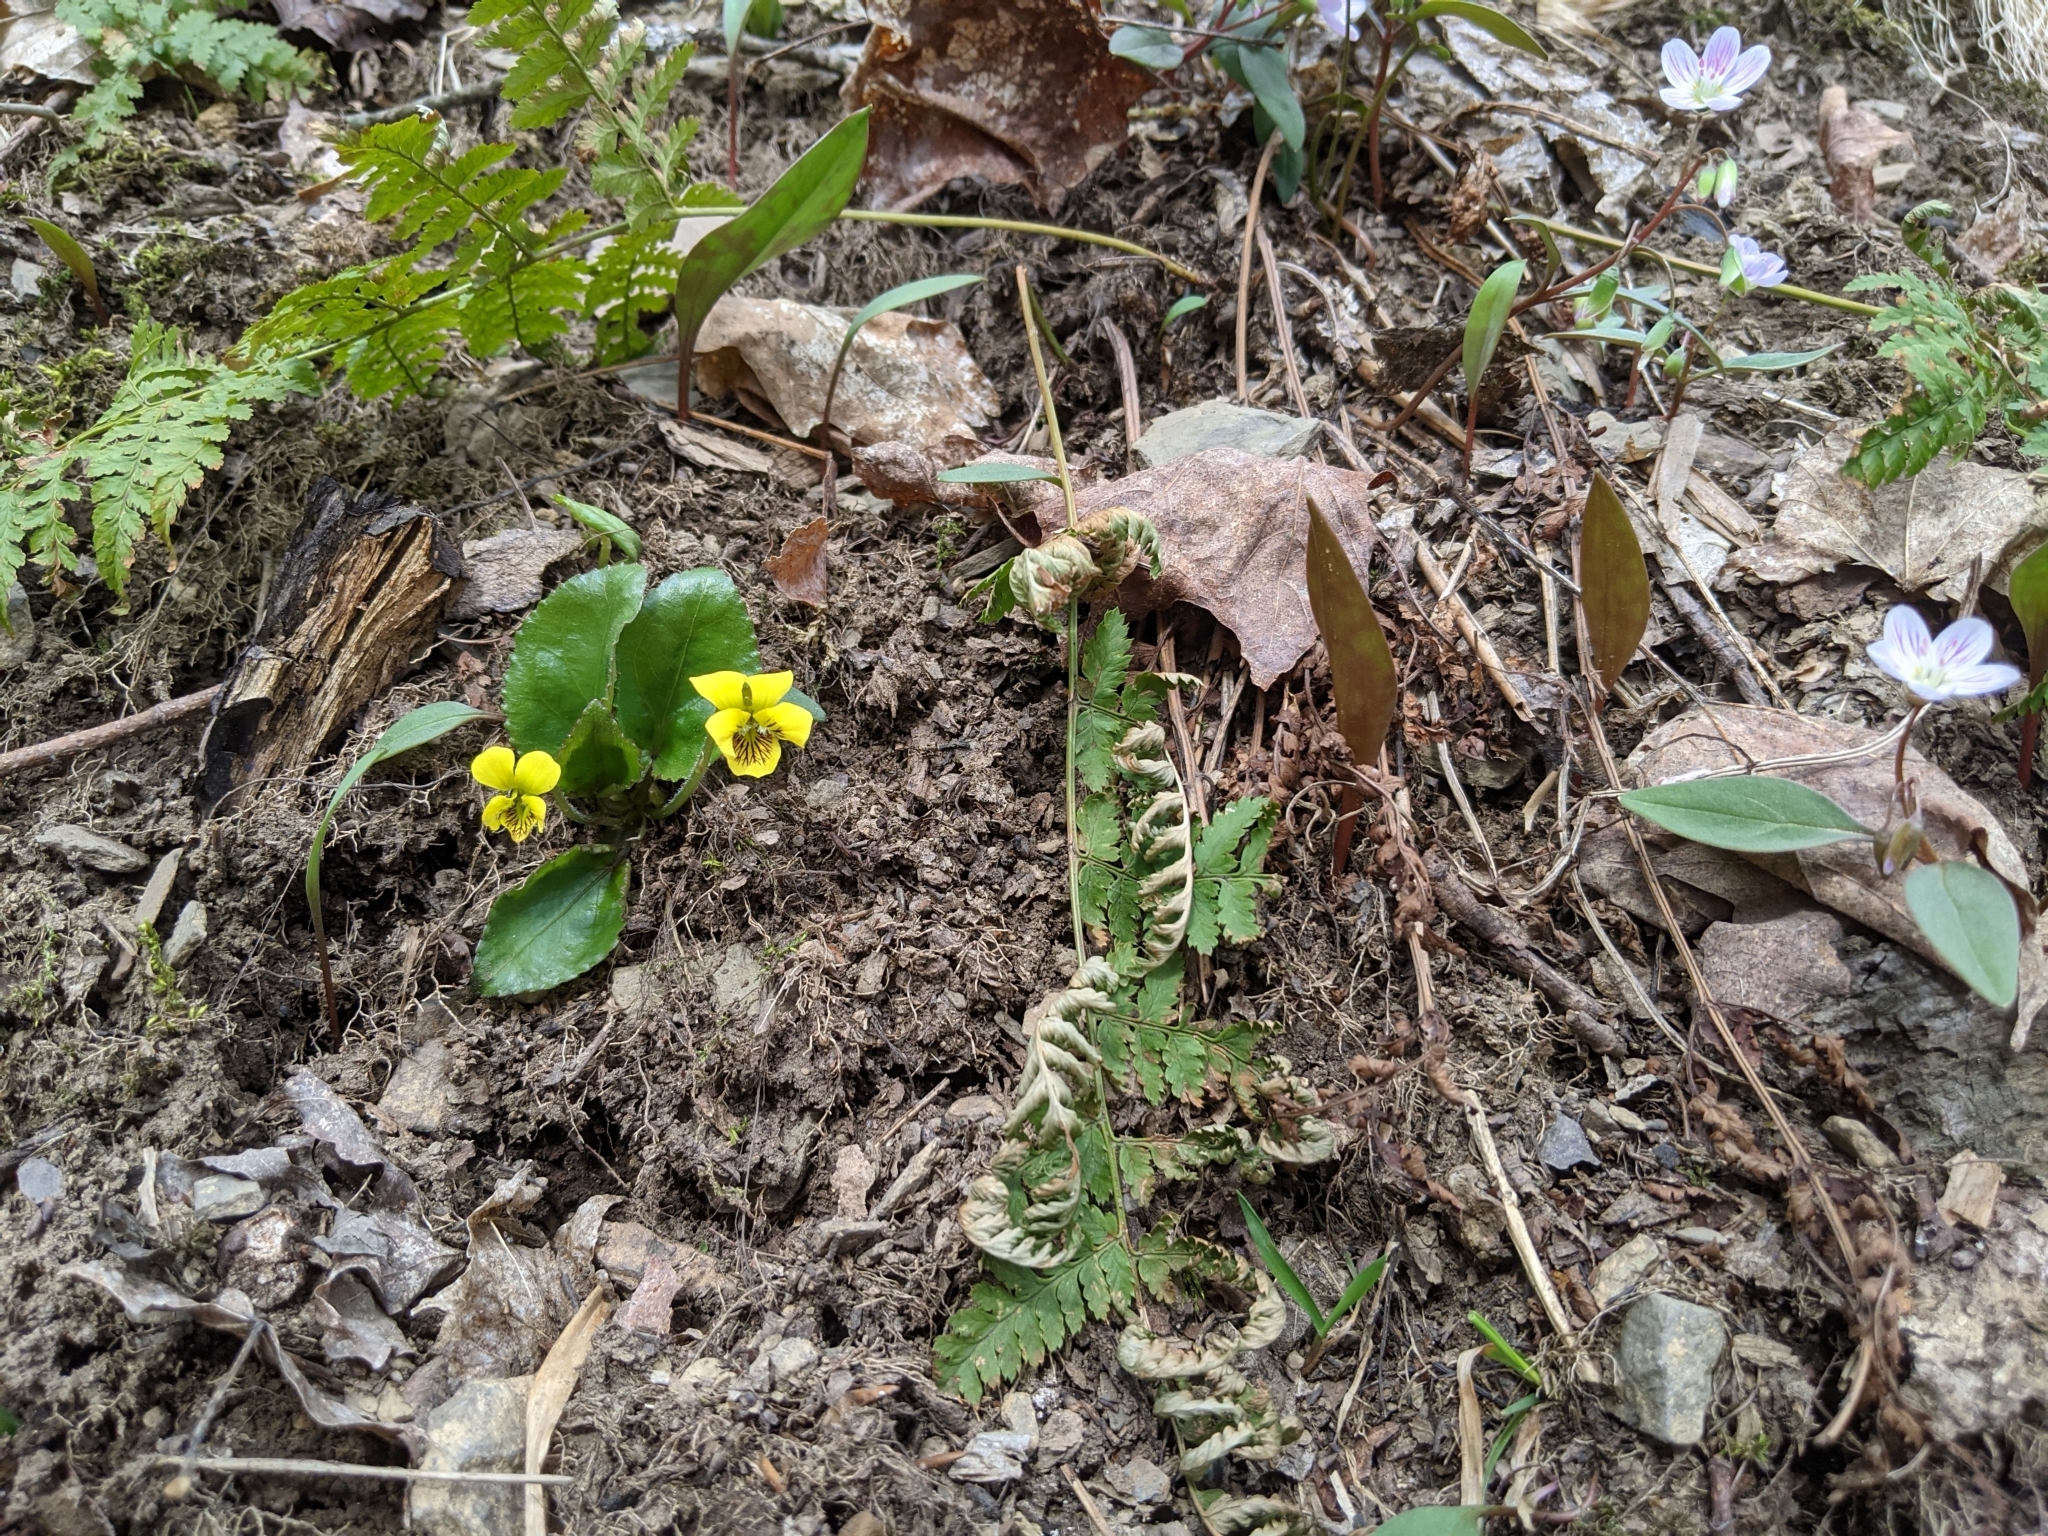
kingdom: Plantae
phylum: Tracheophyta
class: Magnoliopsida
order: Malpighiales
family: Violaceae
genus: Viola
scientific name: Viola rotundifolia
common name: Early yellow violet
